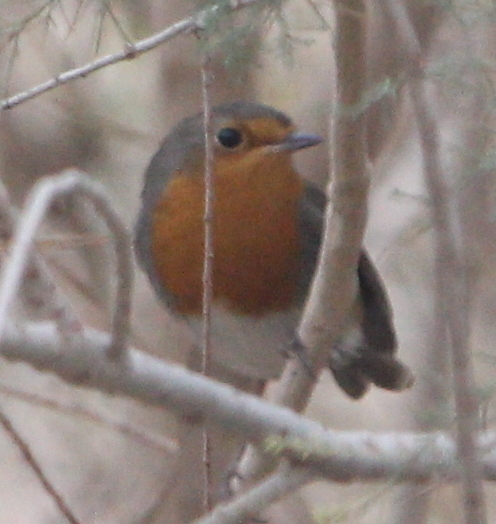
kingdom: Animalia
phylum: Chordata
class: Aves
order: Passeriformes
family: Muscicapidae
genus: Erithacus
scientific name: Erithacus rubecula
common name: European robin
